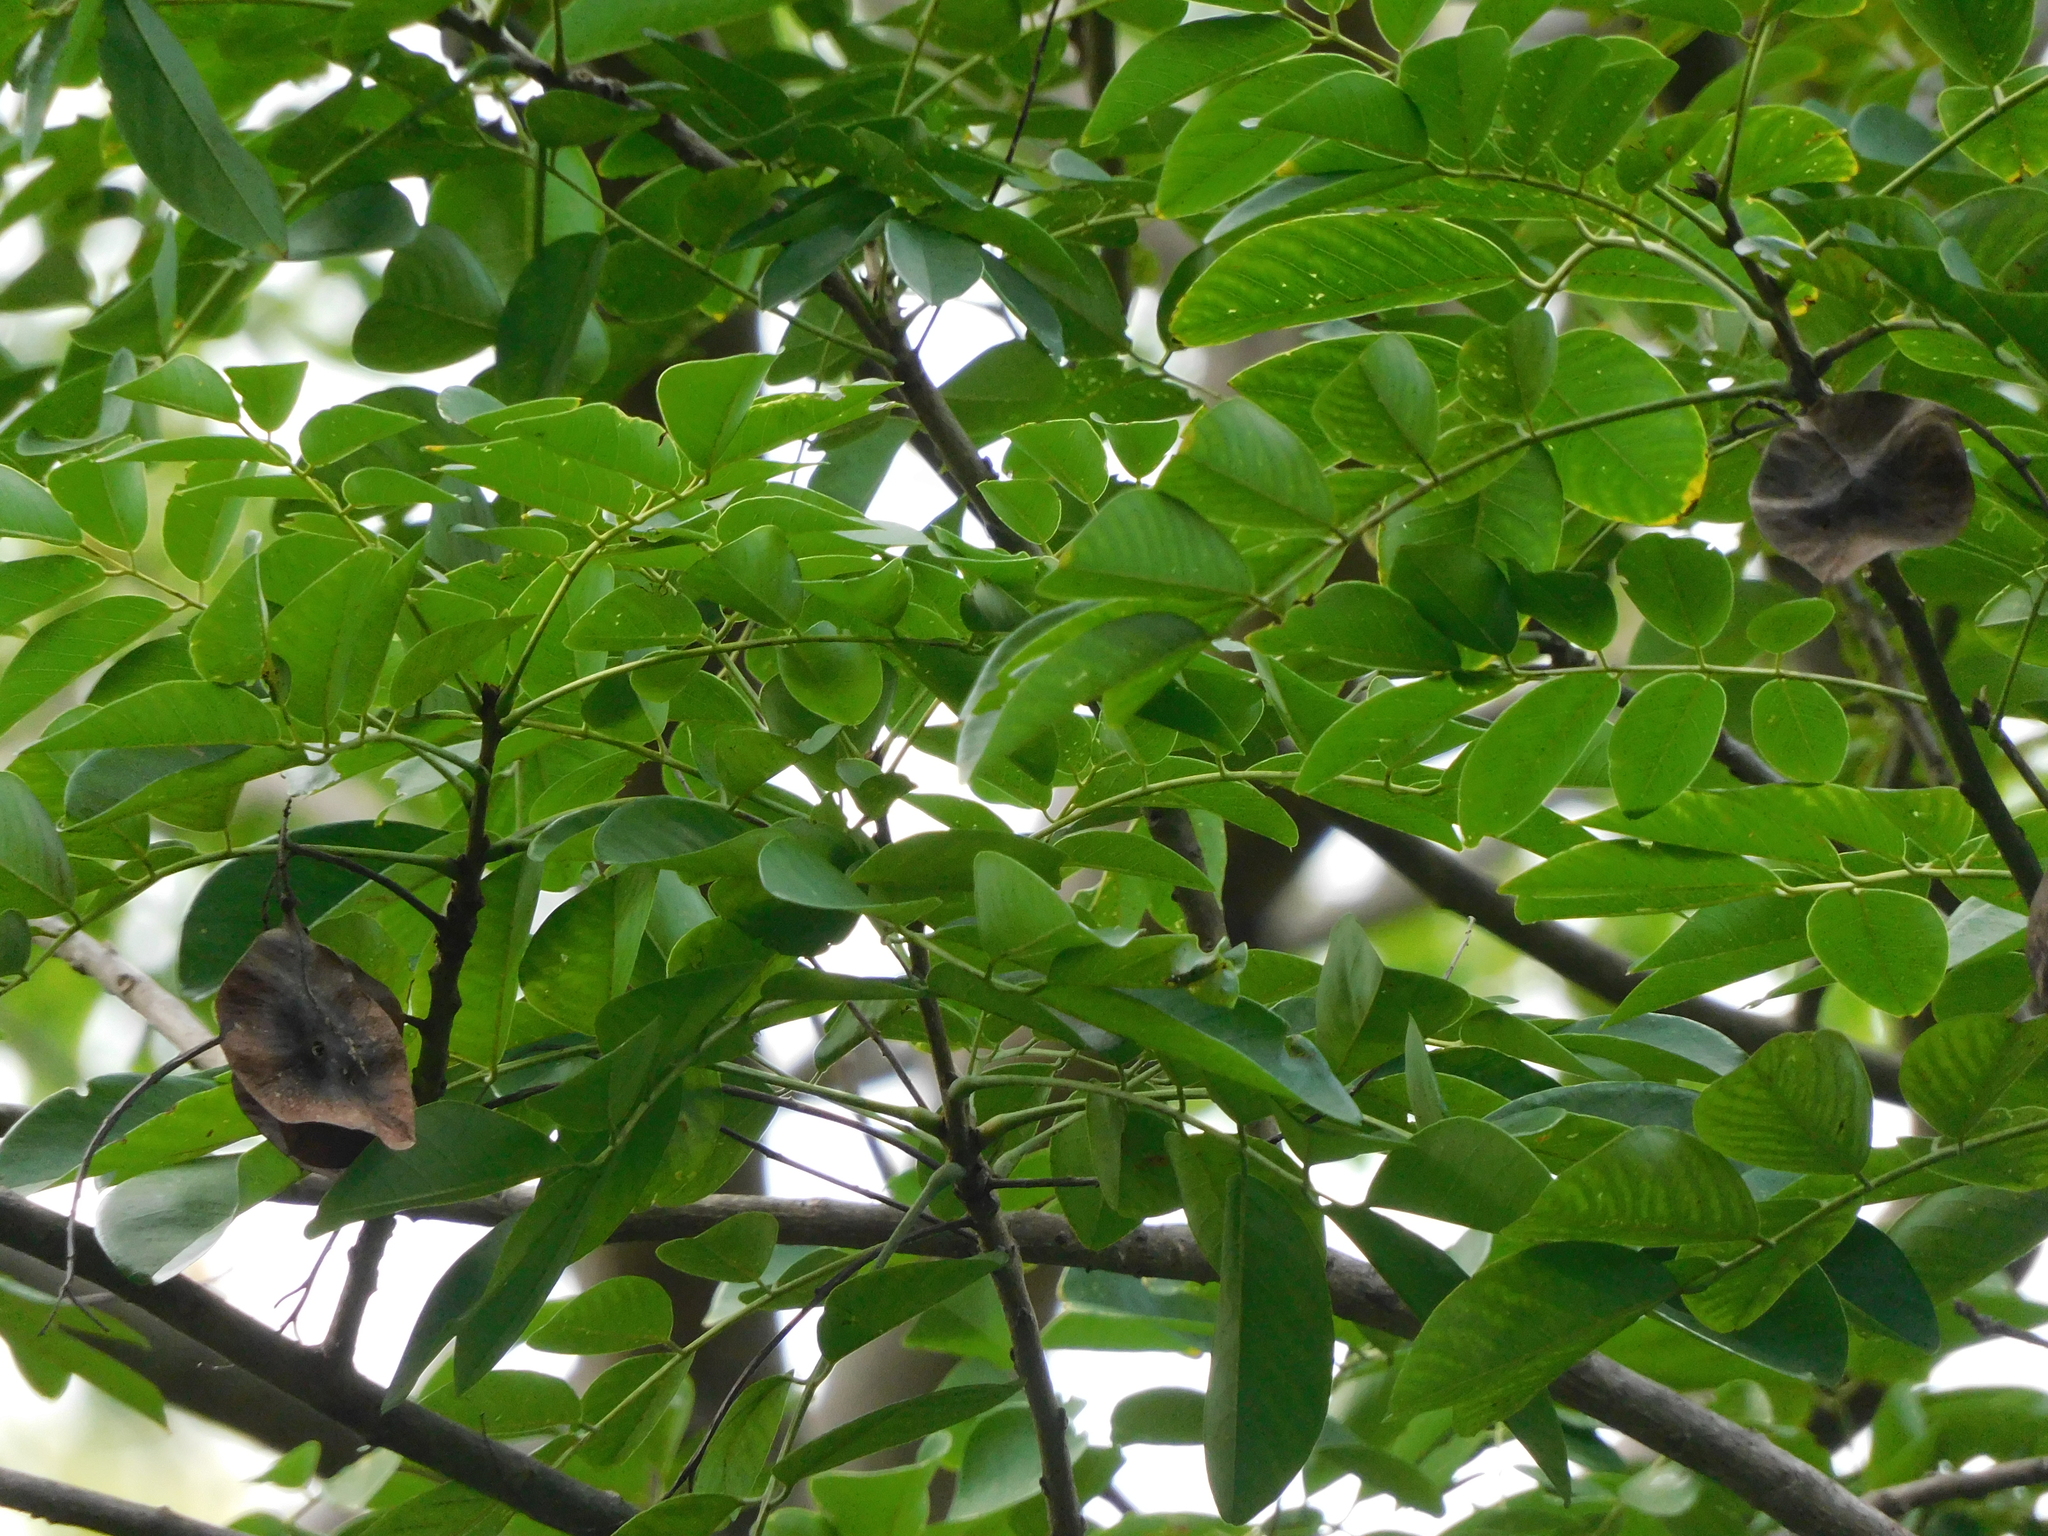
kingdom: Plantae
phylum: Tracheophyta
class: Magnoliopsida
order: Fabales
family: Fabaceae
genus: Pterocarpus
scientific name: Pterocarpus officinalis
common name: Bloodwood
